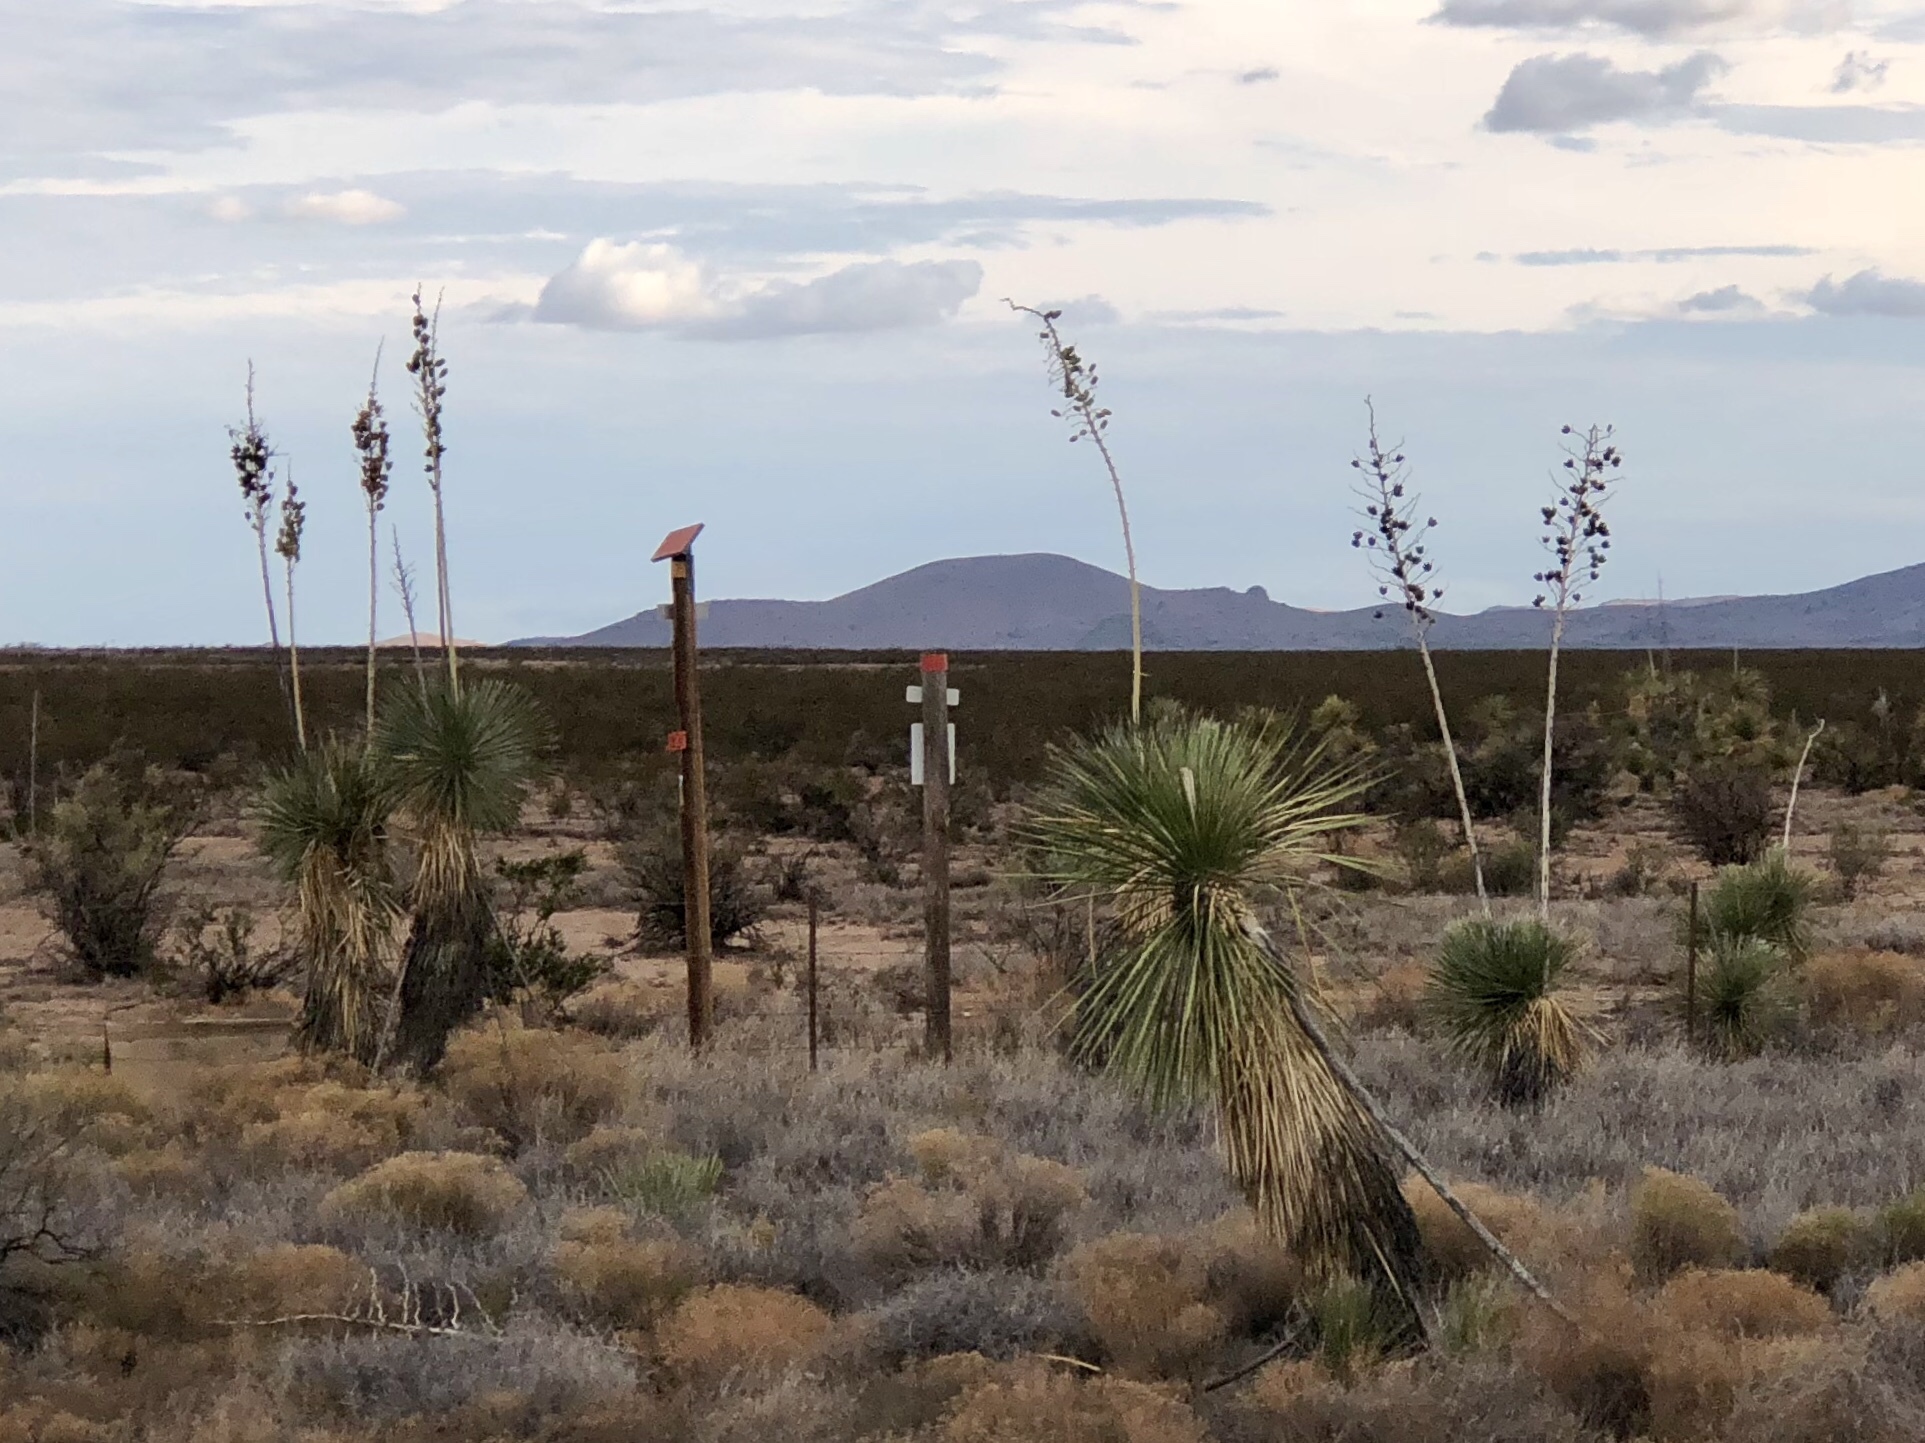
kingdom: Plantae
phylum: Tracheophyta
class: Liliopsida
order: Asparagales
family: Asparagaceae
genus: Yucca
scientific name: Yucca elata
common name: Palmella
